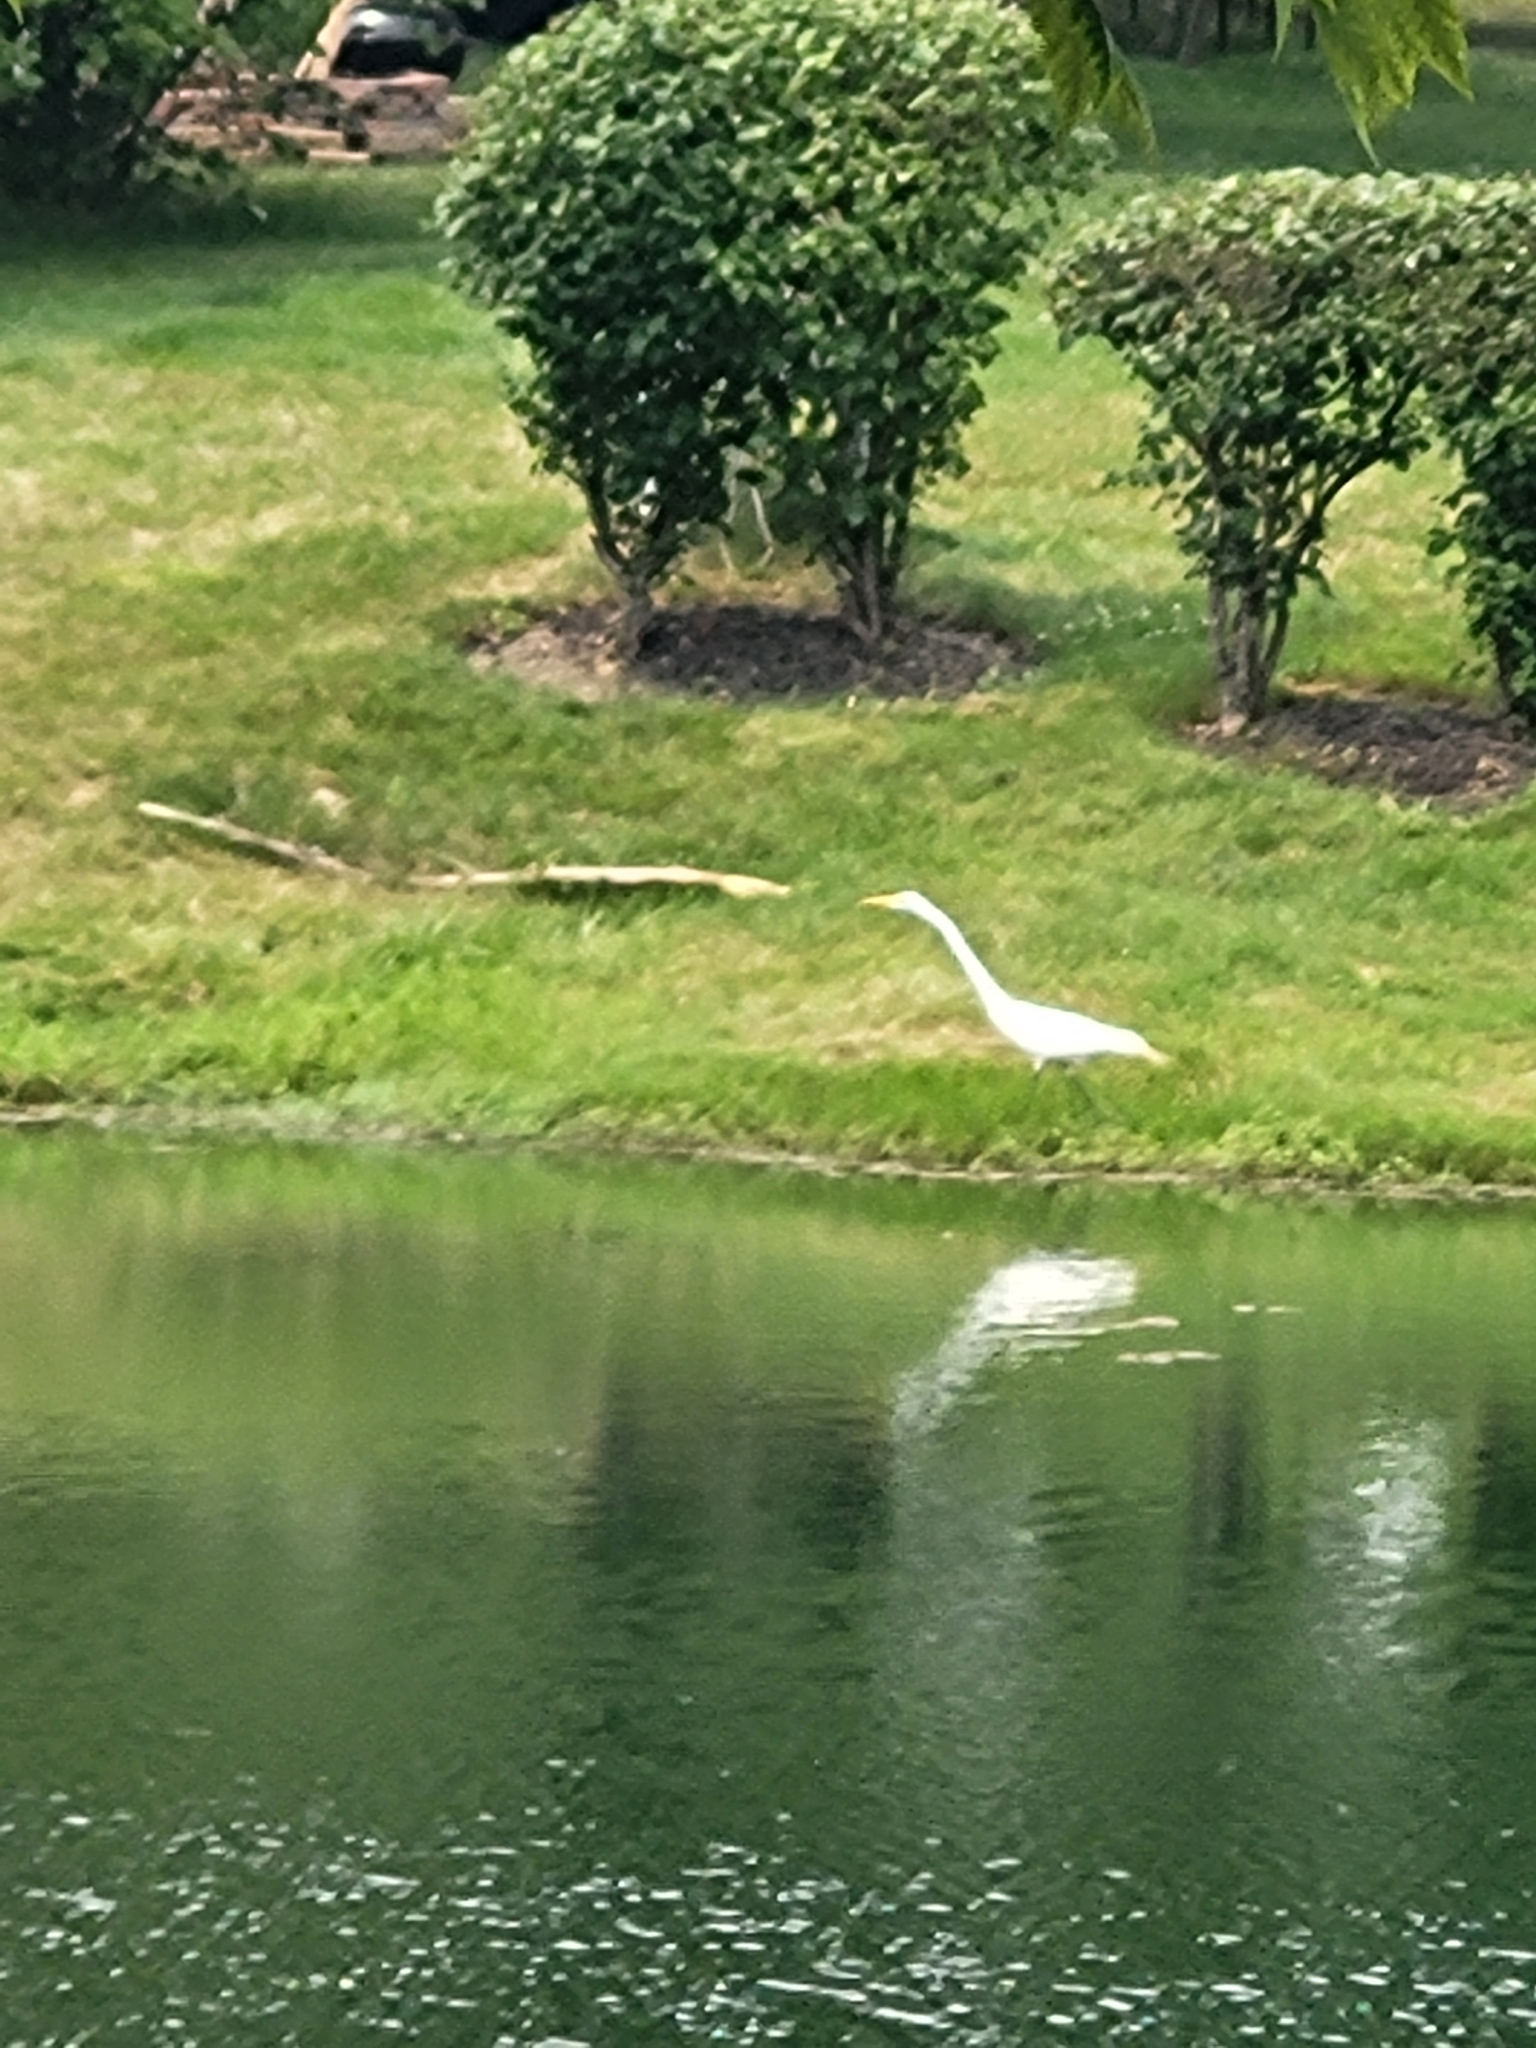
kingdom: Animalia
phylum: Chordata
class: Aves
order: Pelecaniformes
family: Ardeidae
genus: Ardea
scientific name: Ardea alba
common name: Great egret
